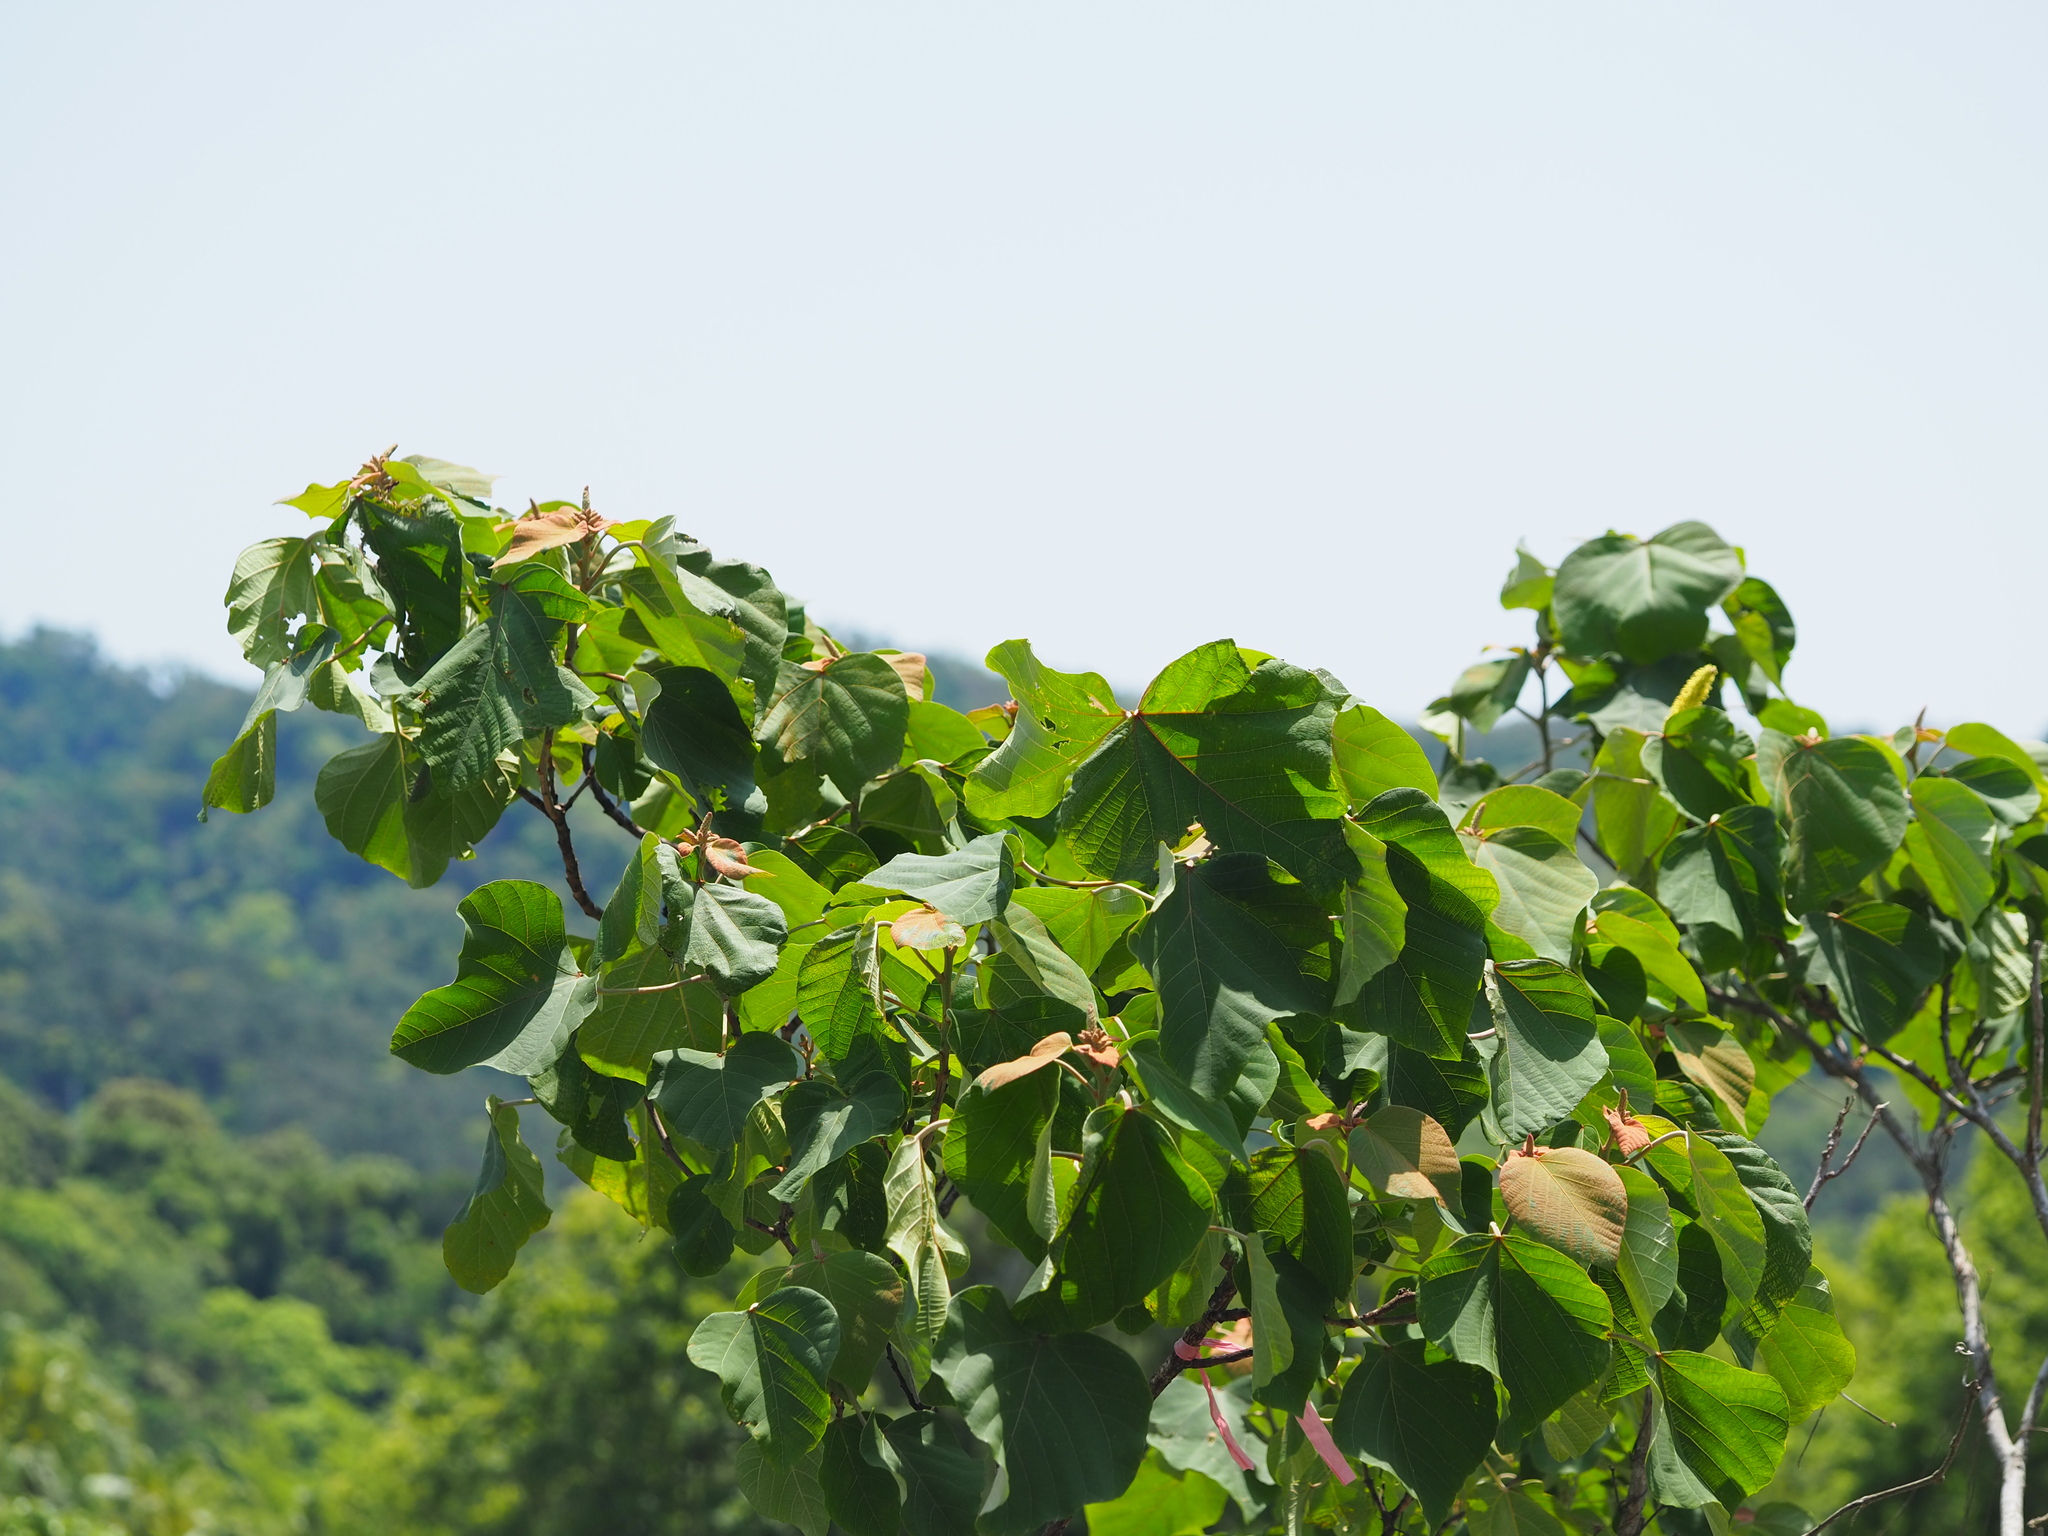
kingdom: Plantae
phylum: Tracheophyta
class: Magnoliopsida
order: Malpighiales
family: Euphorbiaceae
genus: Mallotus
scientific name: Mallotus japonicus
